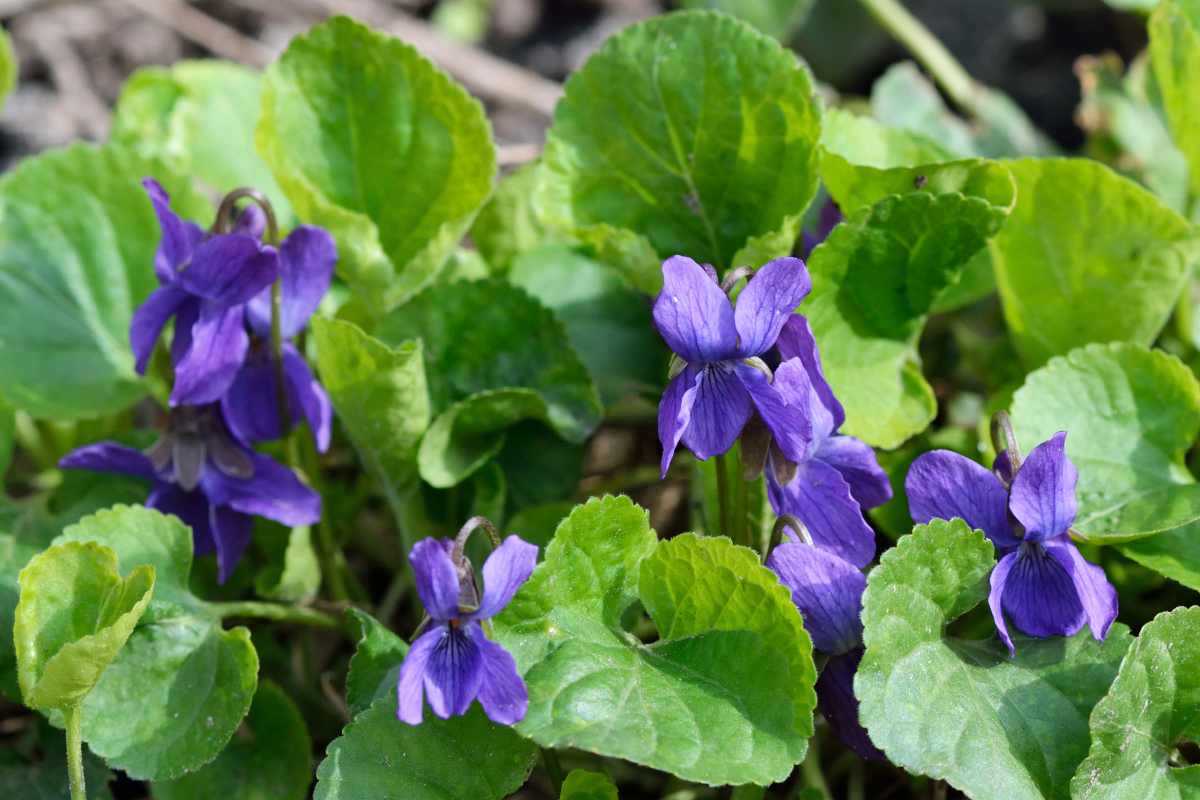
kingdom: Plantae
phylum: Tracheophyta
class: Magnoliopsida
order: Malpighiales
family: Violaceae
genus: Viola
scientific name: Viola odorata
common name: Sweet violet
